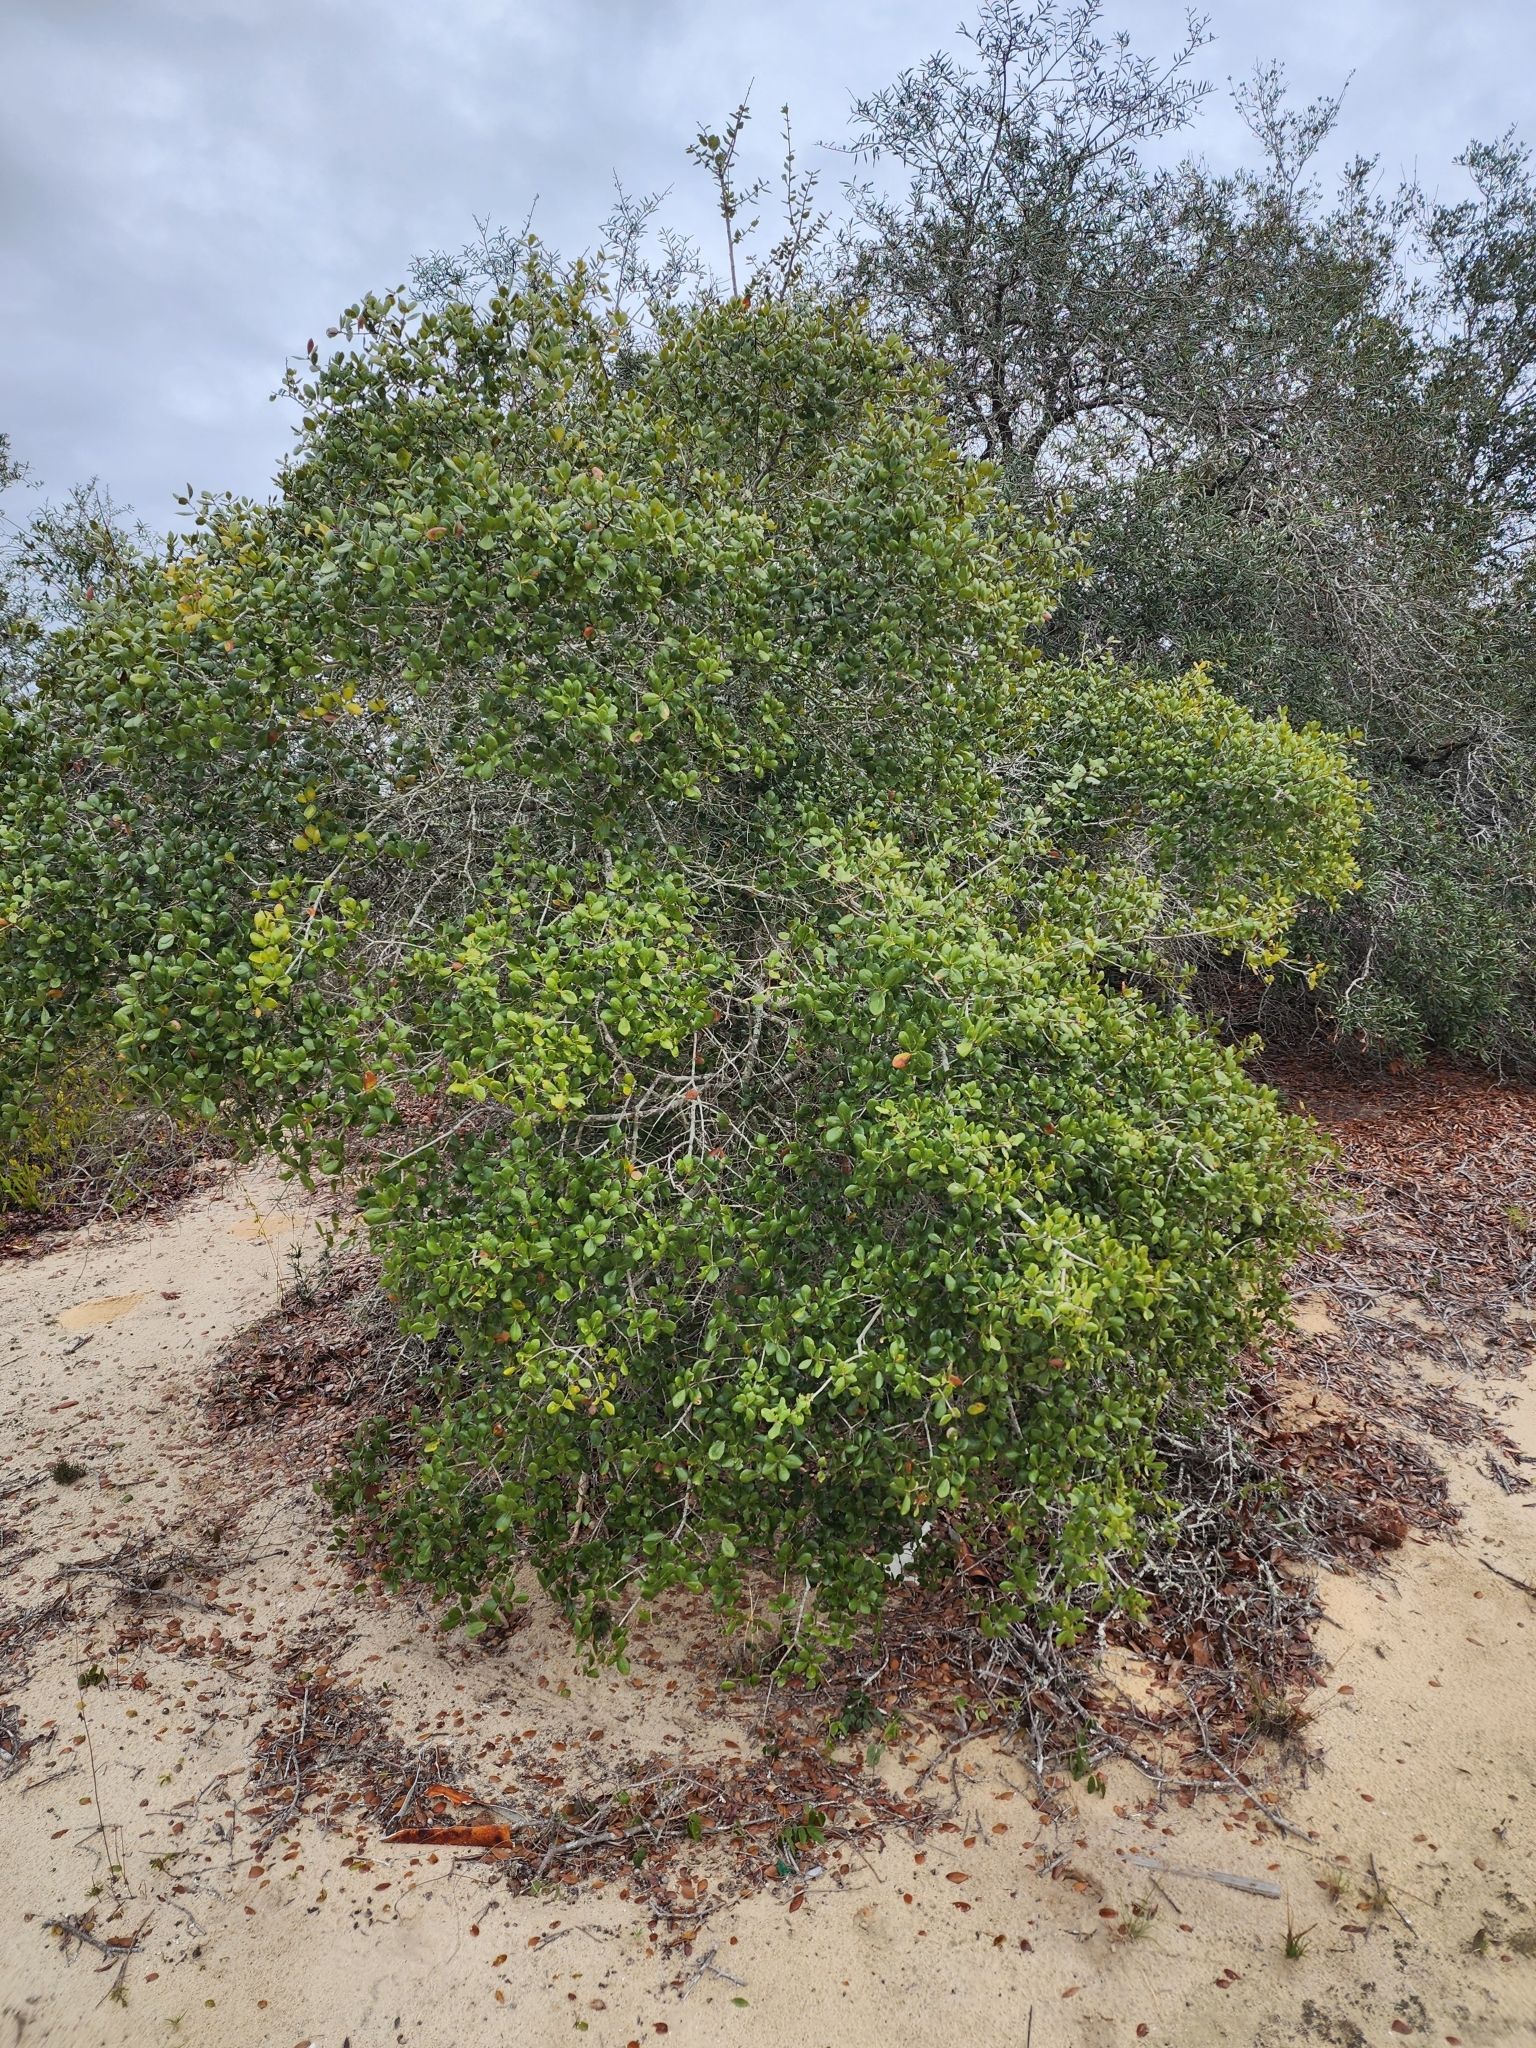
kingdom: Plantae
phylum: Tracheophyta
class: Magnoliopsida
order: Fagales
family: Fagaceae
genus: Quercus
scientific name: Quercus myrtifolia
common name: Myrtle oak
